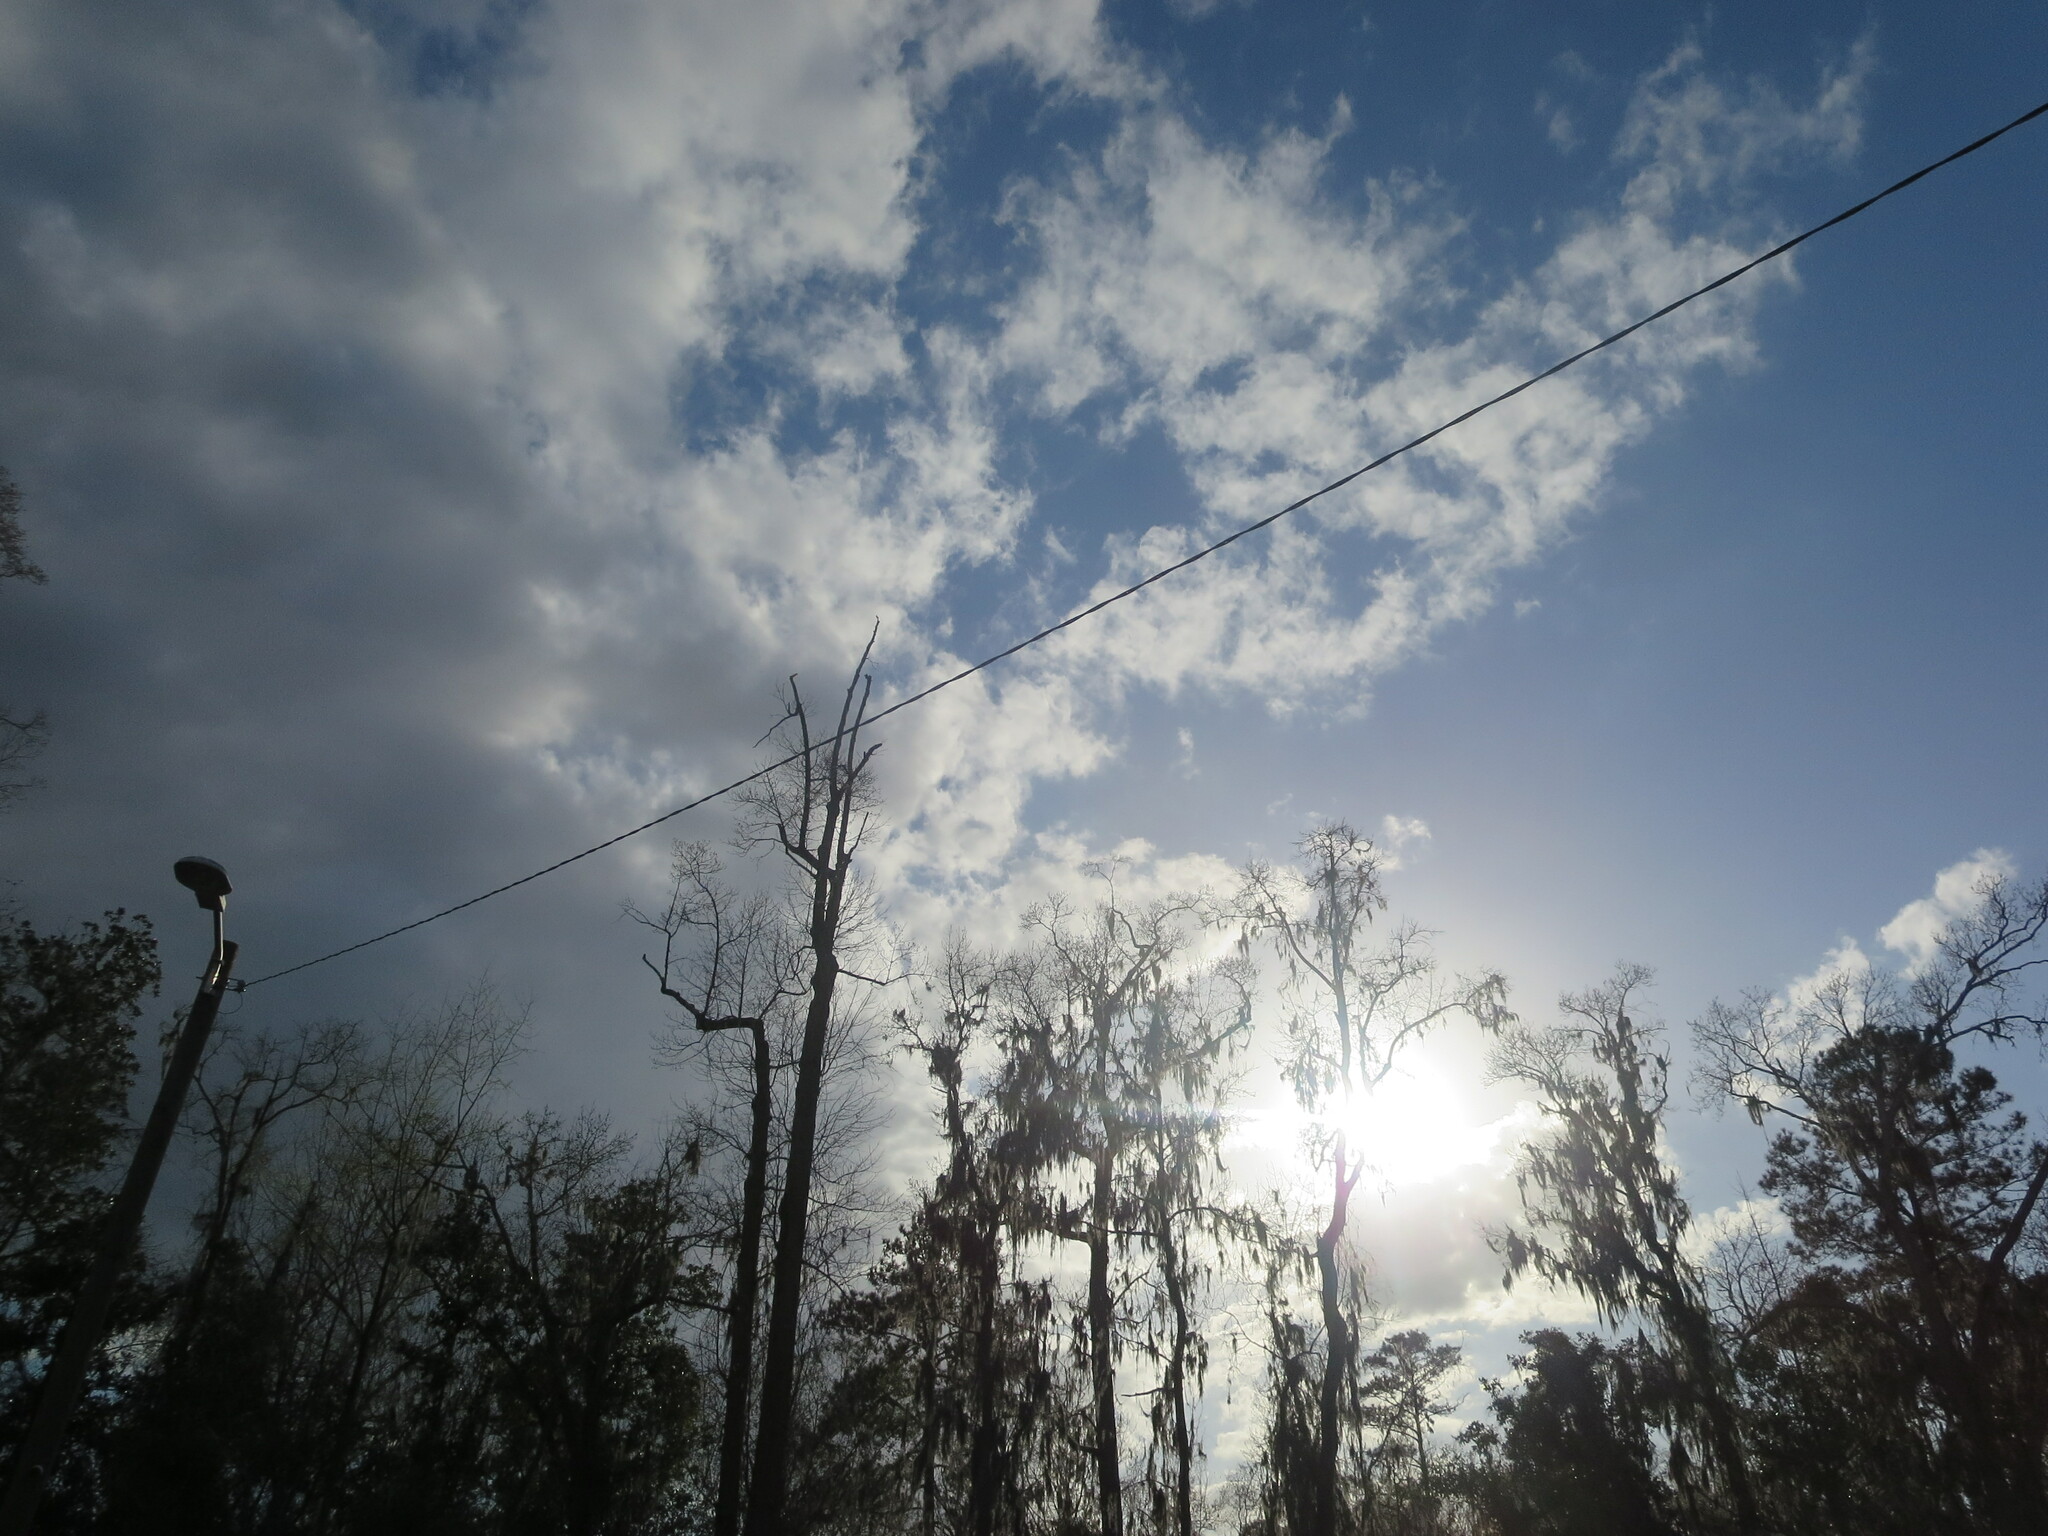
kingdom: Plantae
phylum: Tracheophyta
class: Liliopsida
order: Poales
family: Bromeliaceae
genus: Tillandsia
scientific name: Tillandsia usneoides
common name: Spanish moss
